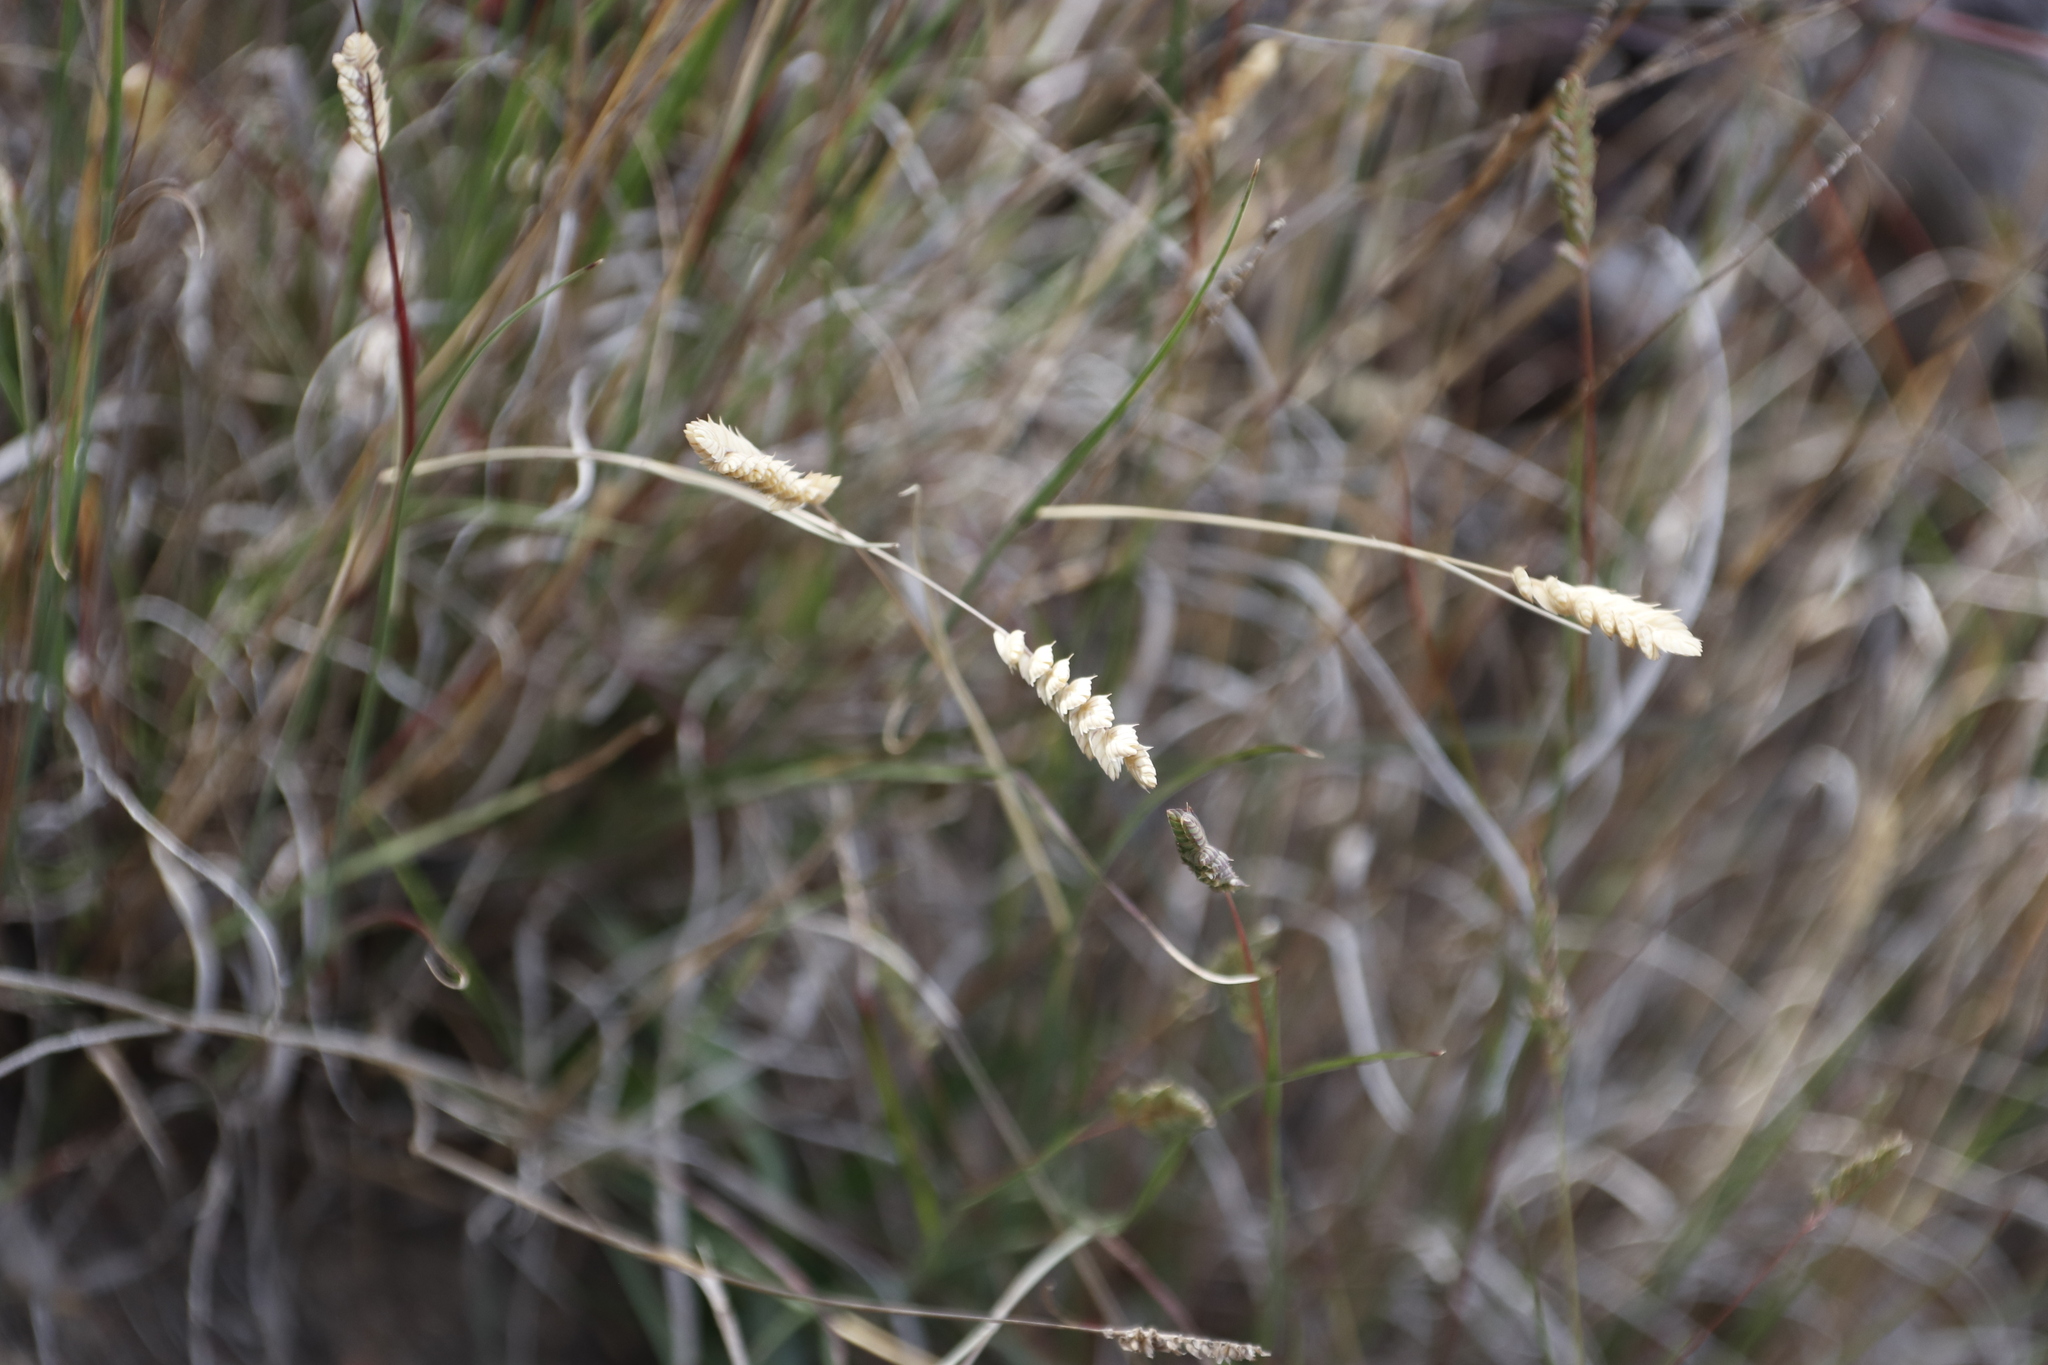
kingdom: Plantae
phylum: Tracheophyta
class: Liliopsida
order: Poales
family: Poaceae
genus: Tribolium
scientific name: Tribolium uniolae
